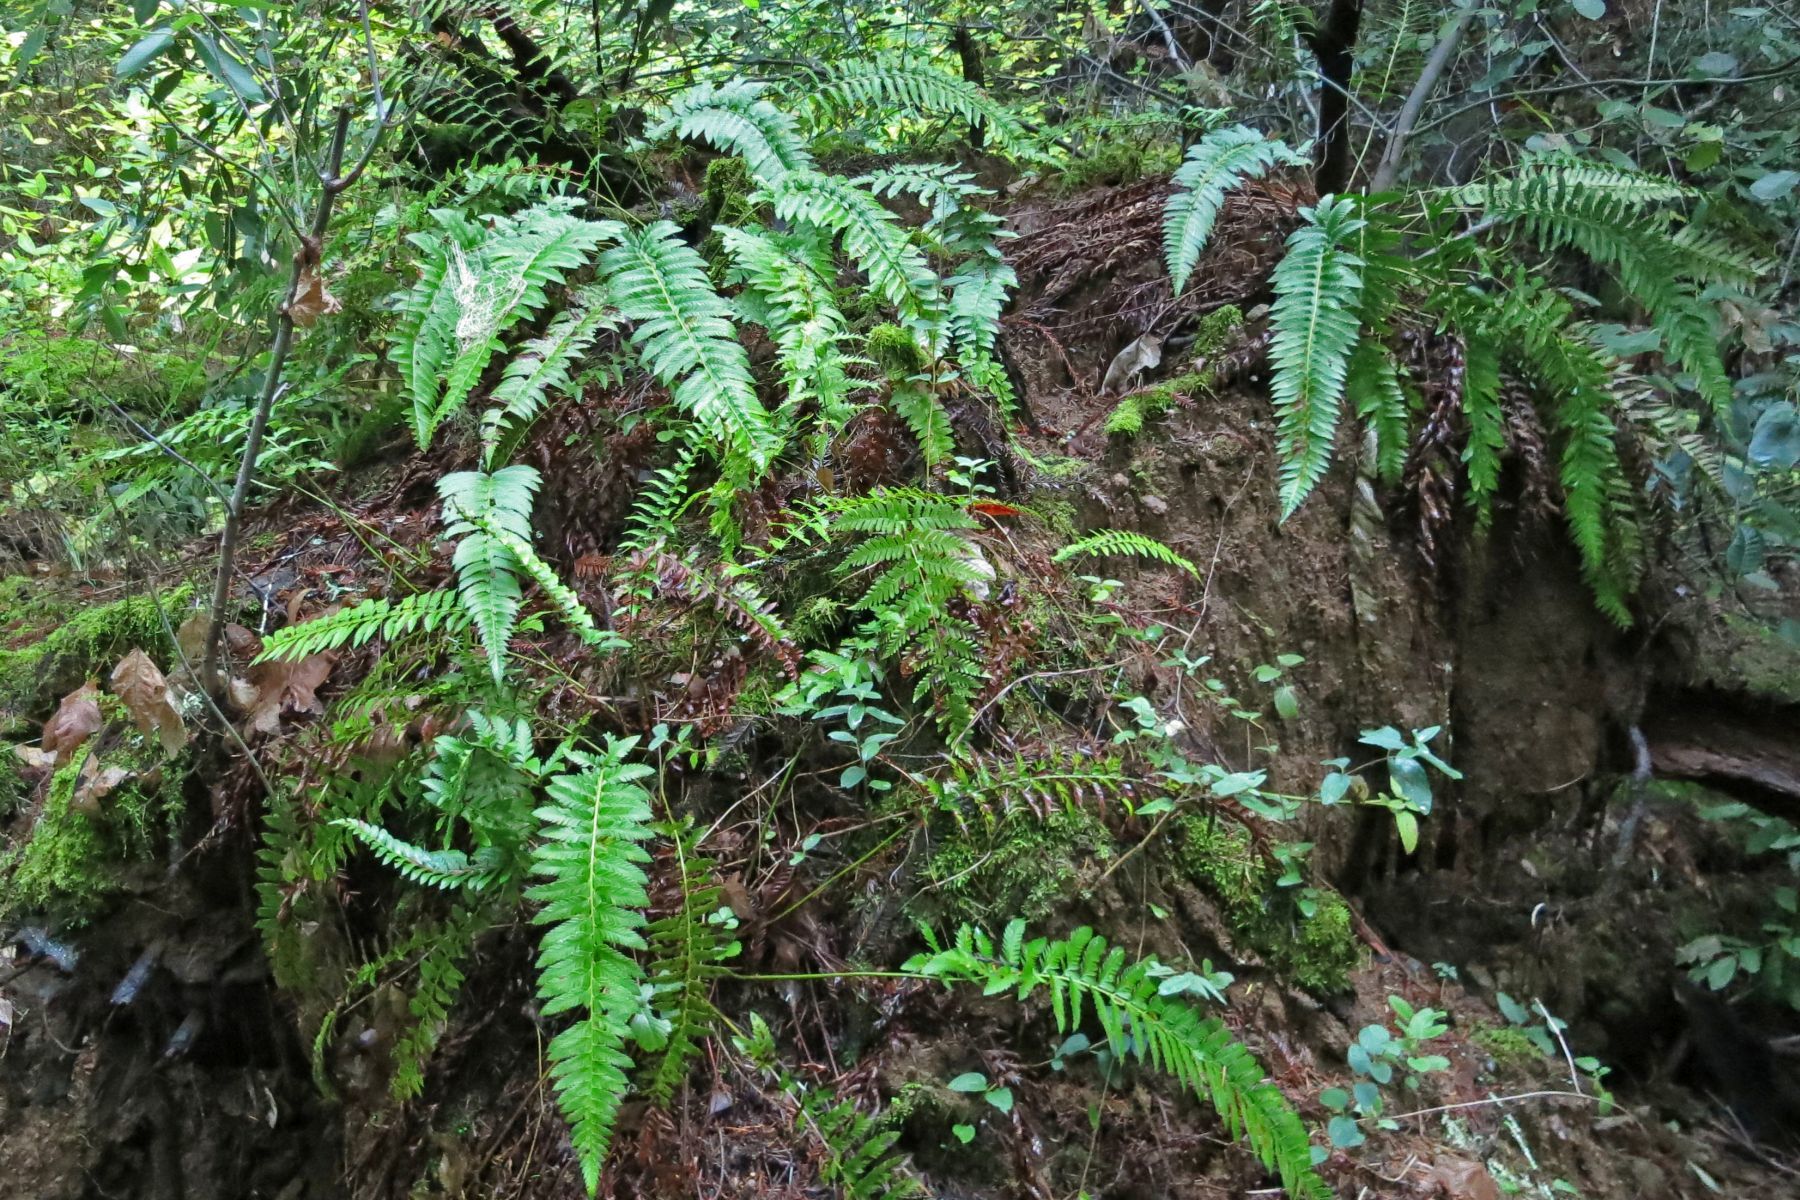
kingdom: Plantae
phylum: Tracheophyta
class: Polypodiopsida
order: Polypodiales
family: Dryopteridaceae
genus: Polystichum
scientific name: Polystichum californicum
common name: California sword fern
